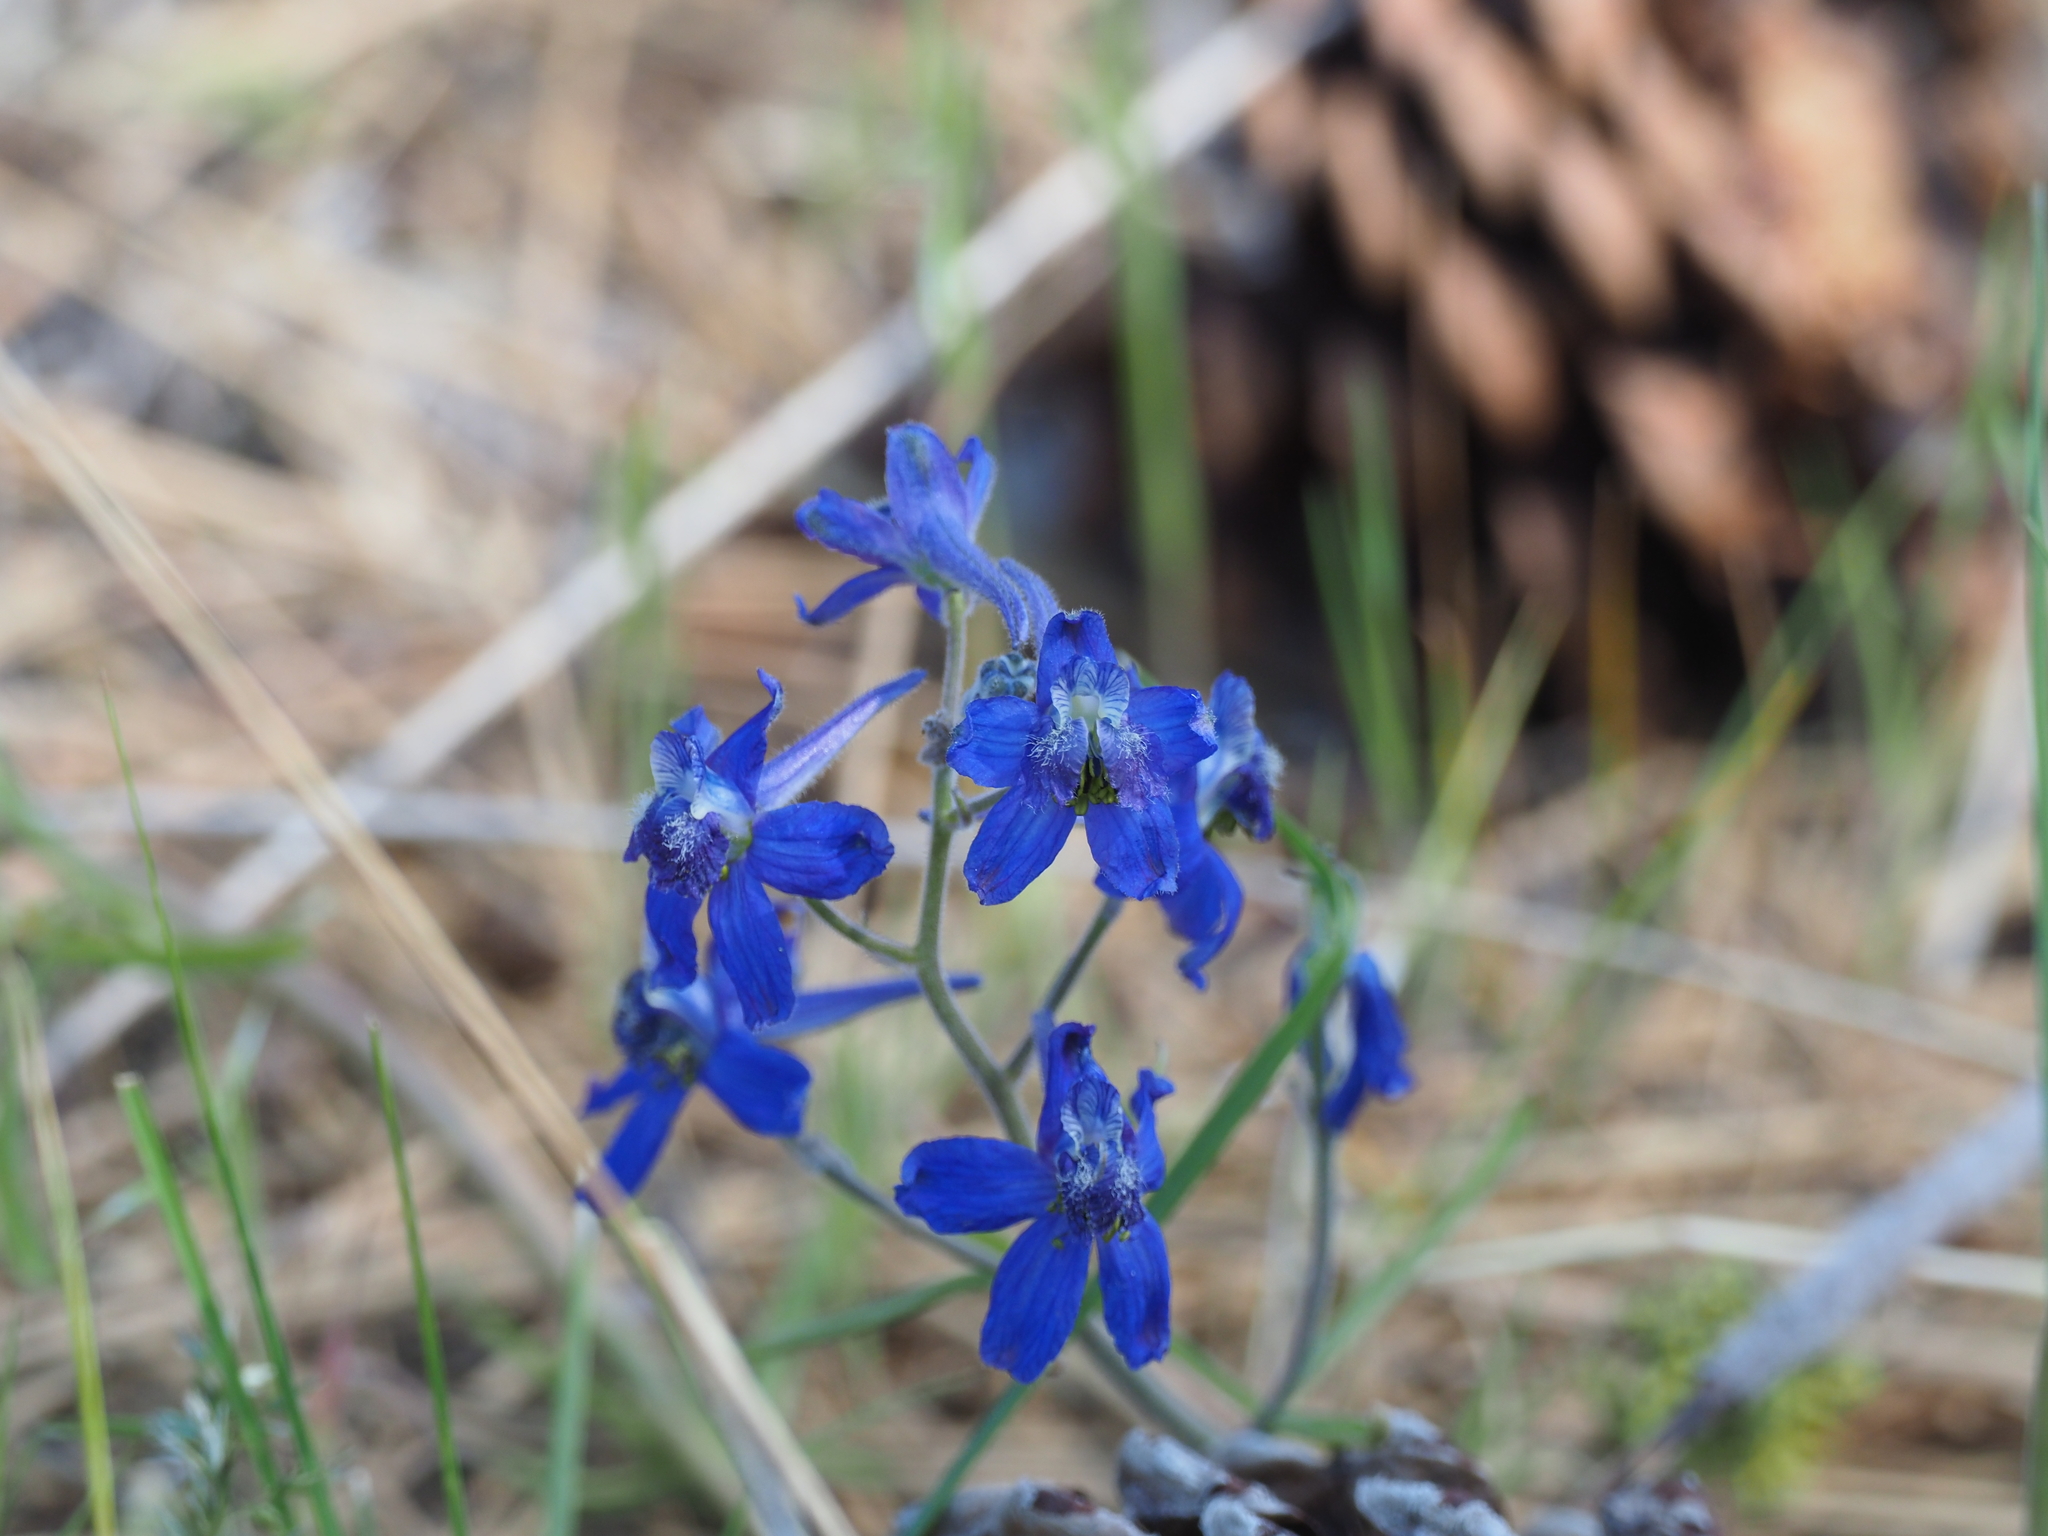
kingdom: Plantae
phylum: Tracheophyta
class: Magnoliopsida
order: Ranunculales
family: Ranunculaceae
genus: Delphinium
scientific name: Delphinium nuttallianum
